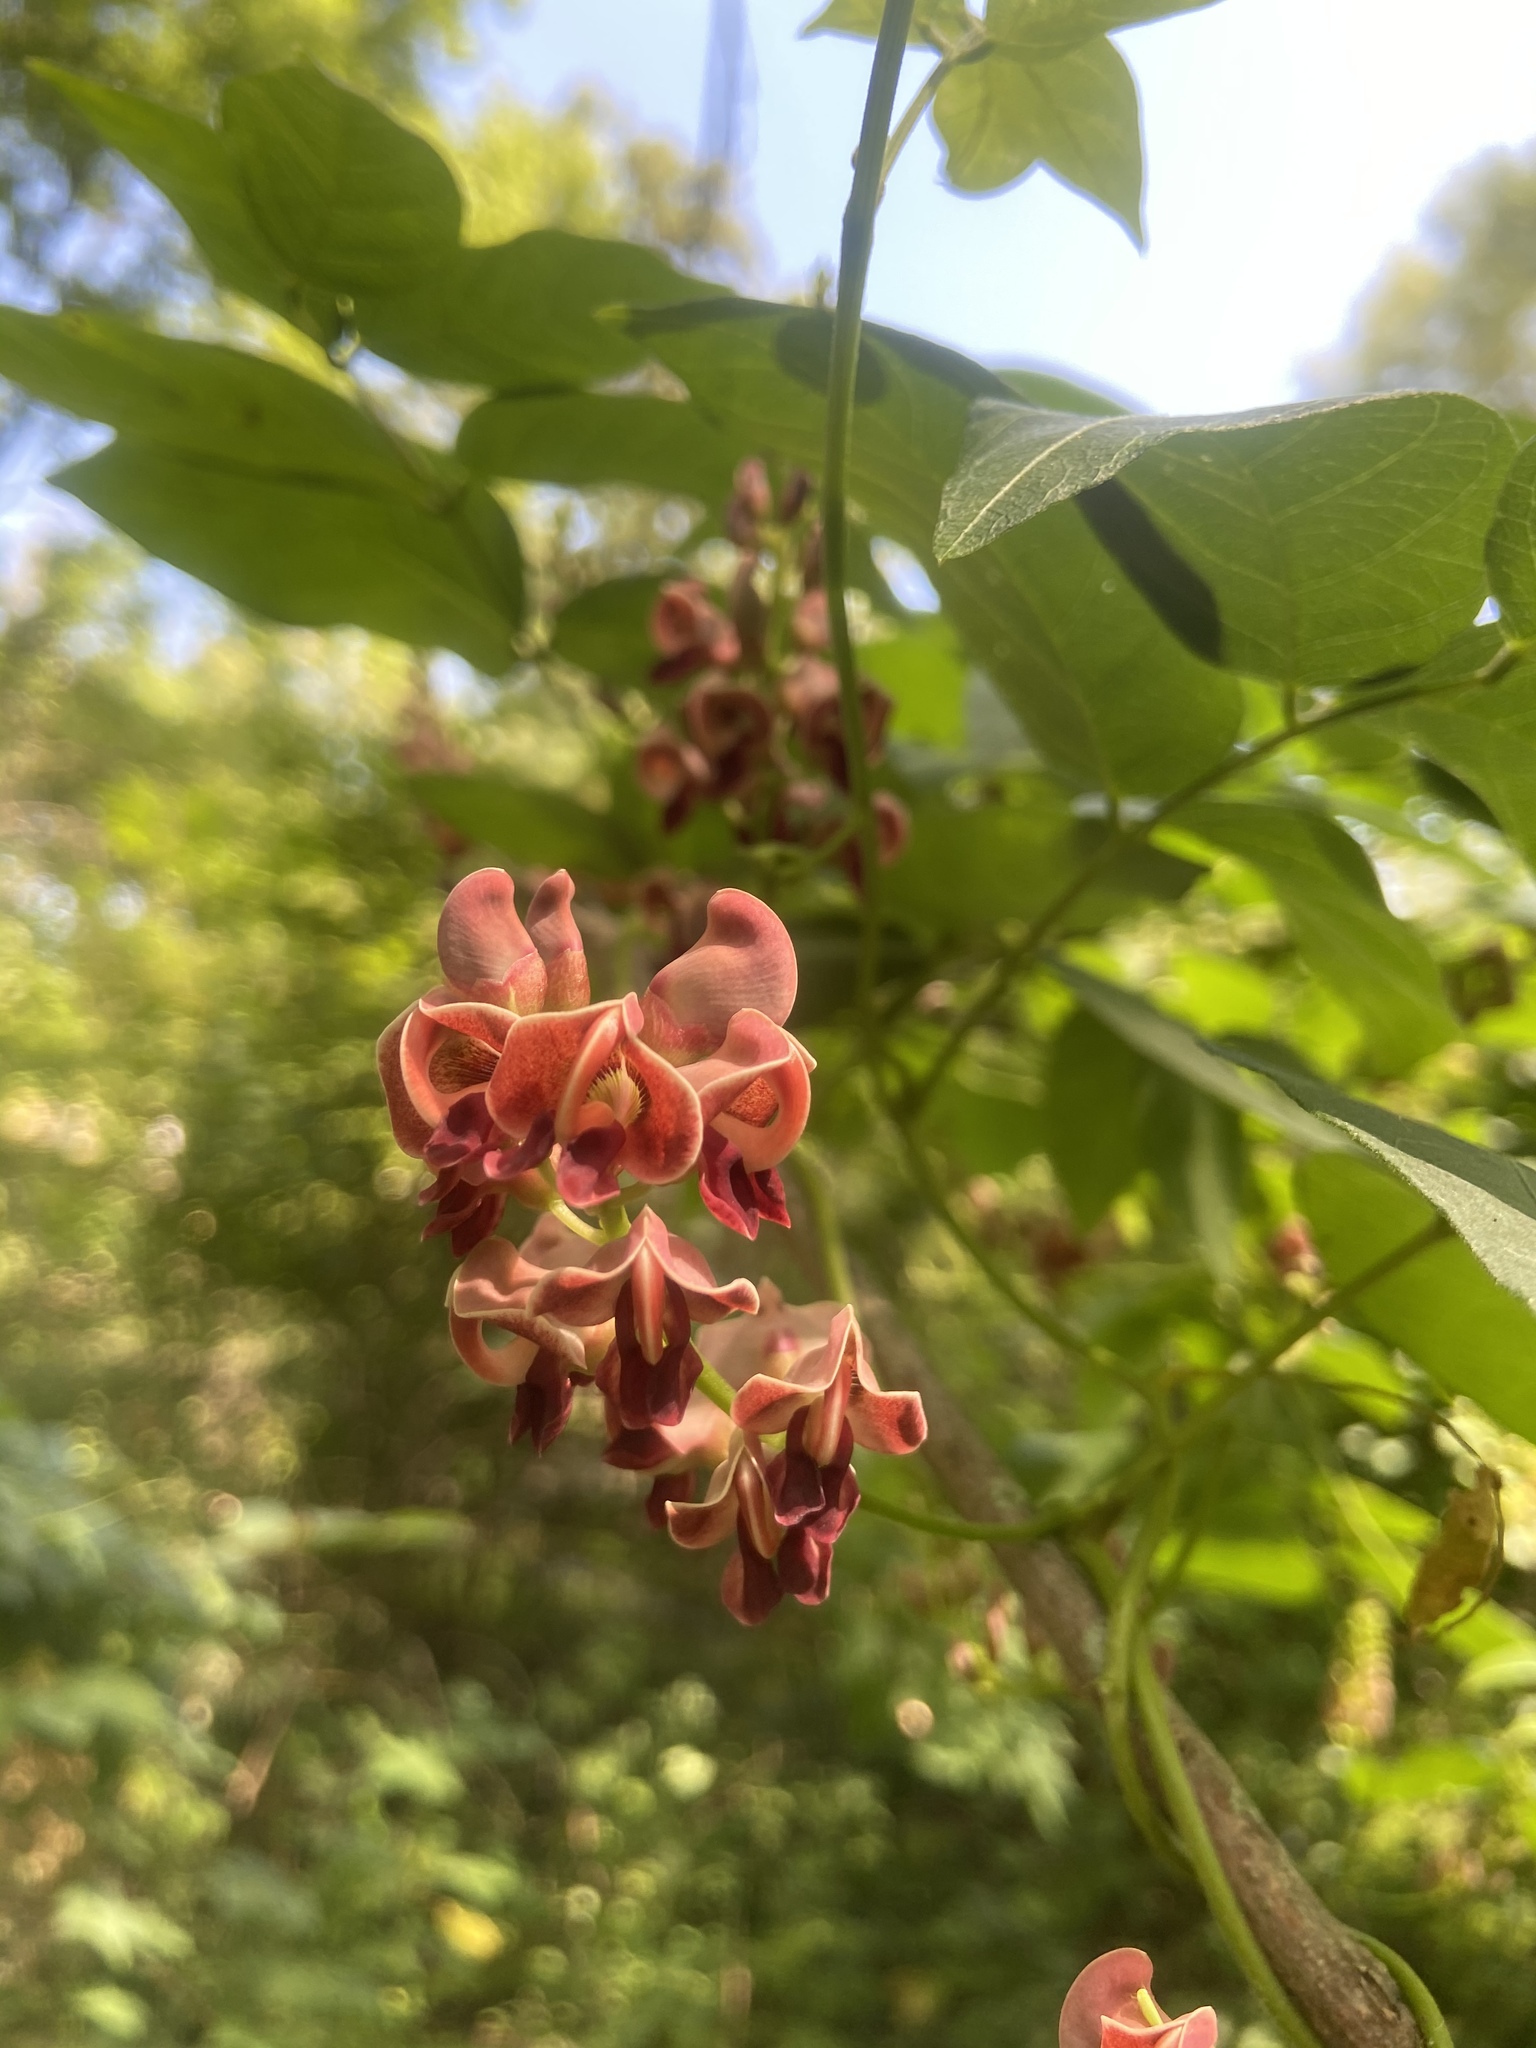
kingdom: Plantae
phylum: Tracheophyta
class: Magnoliopsida
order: Fabales
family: Fabaceae
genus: Apios
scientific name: Apios americana
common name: American potato-bean
